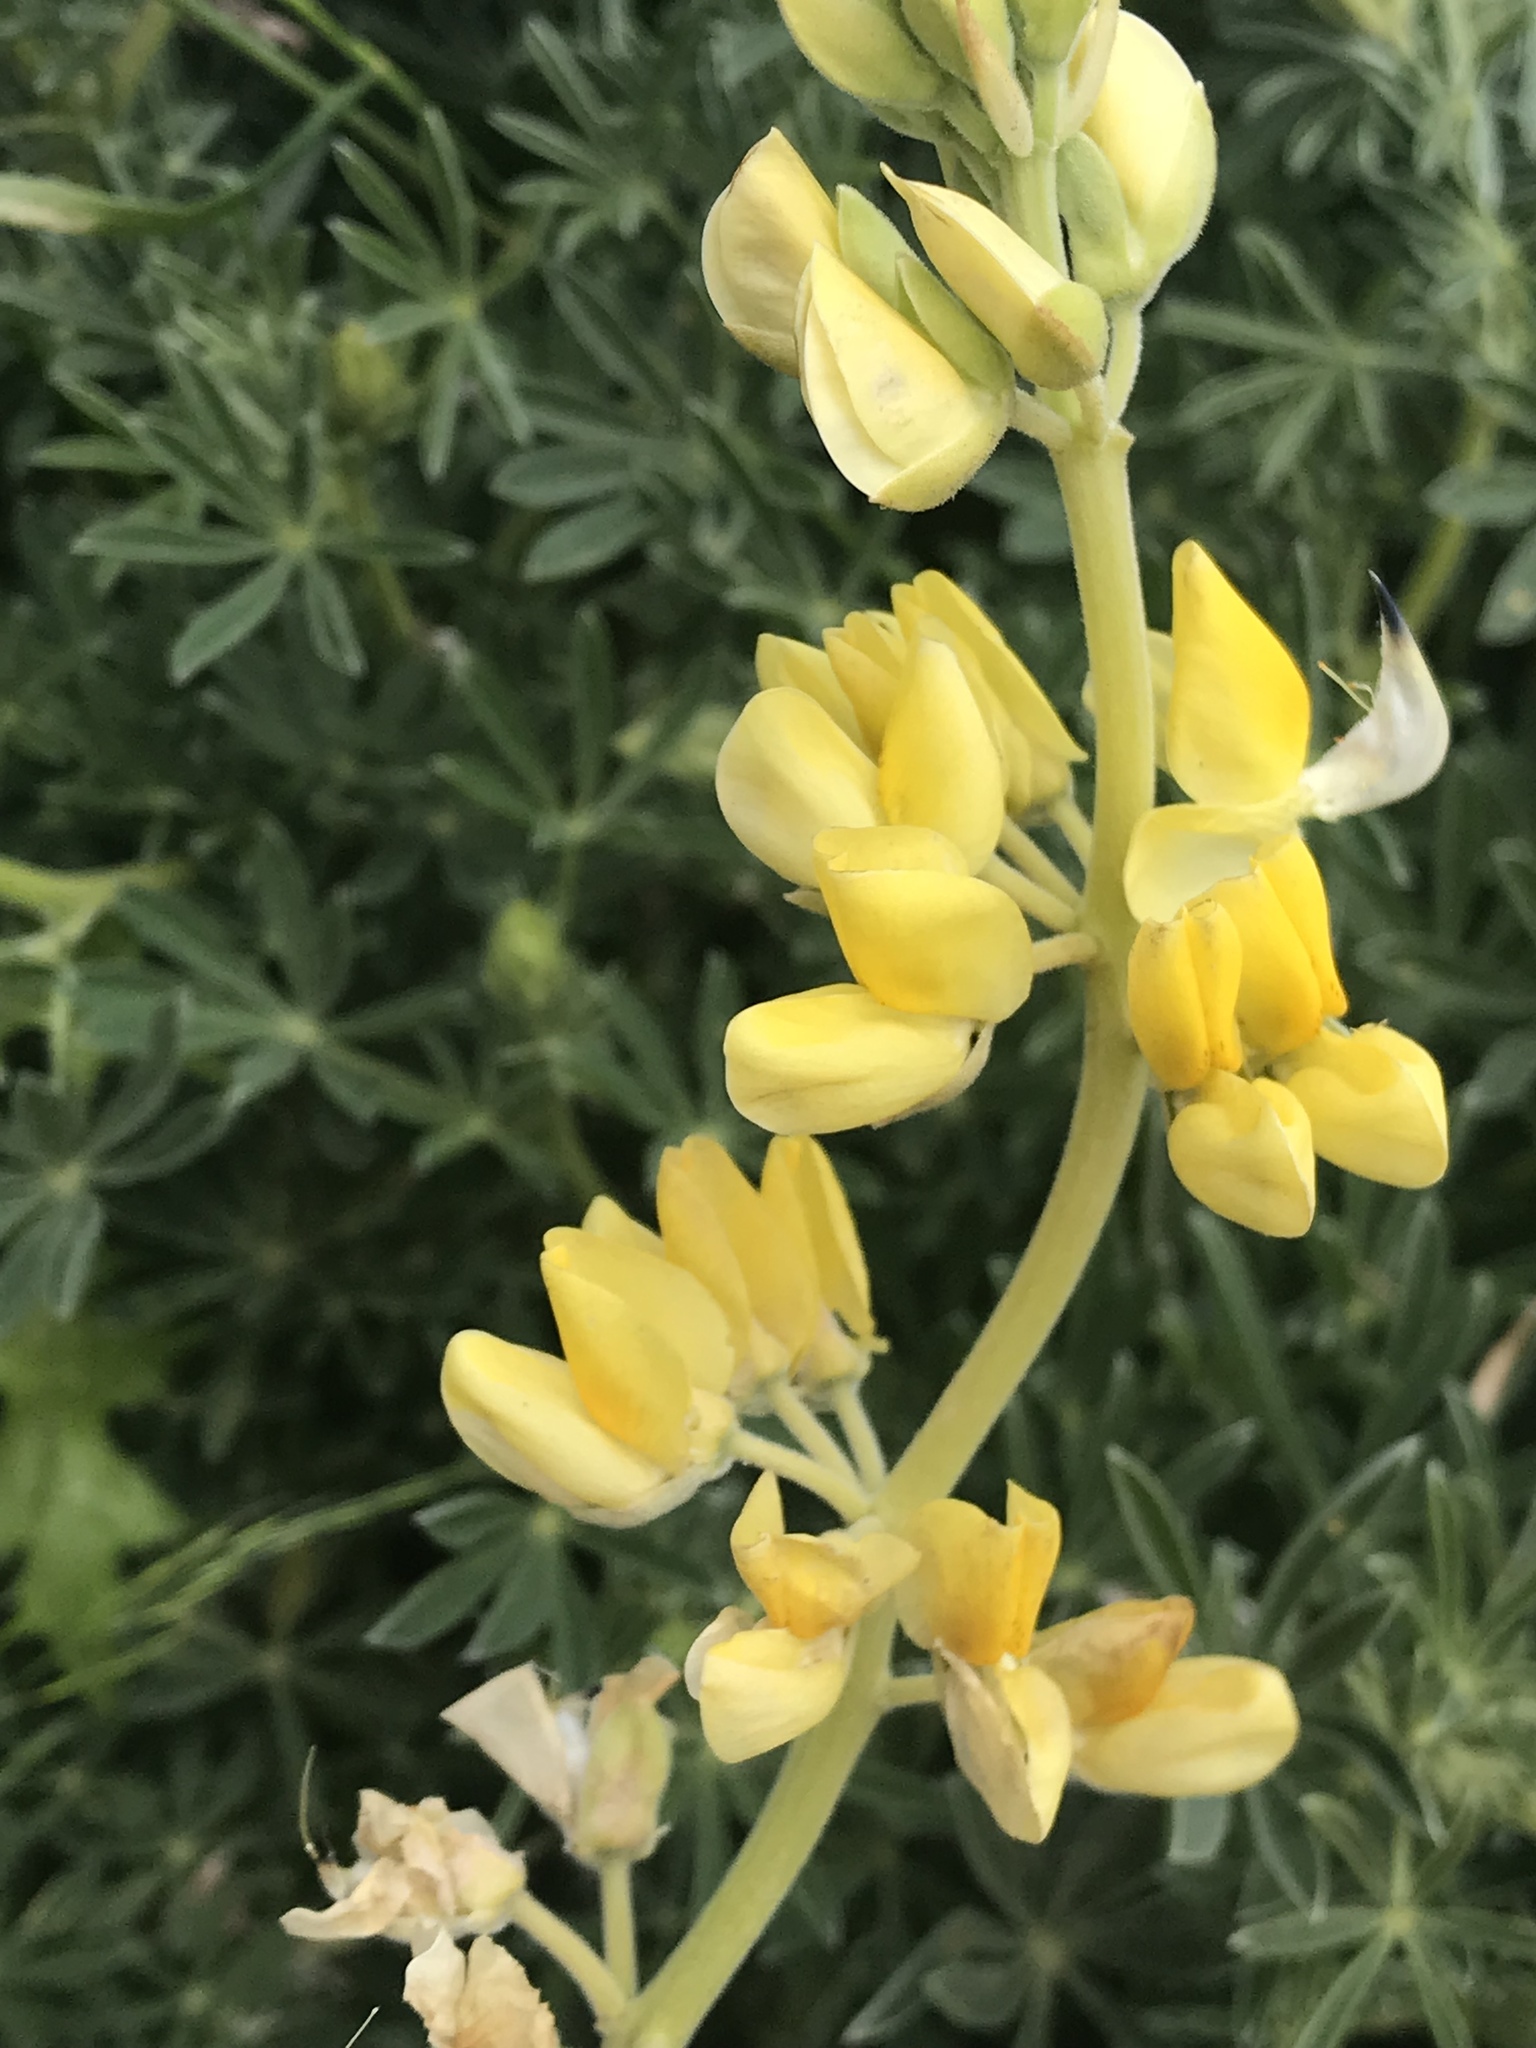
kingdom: Plantae
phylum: Tracheophyta
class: Magnoliopsida
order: Fabales
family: Fabaceae
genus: Lupinus
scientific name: Lupinus arboreus
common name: Yellow bush lupine
